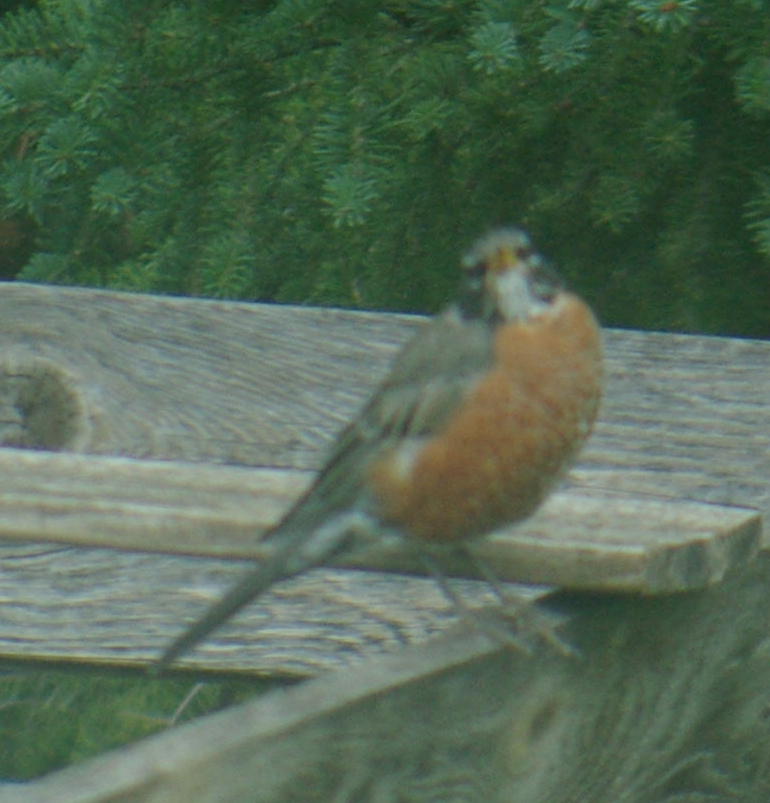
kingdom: Animalia
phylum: Chordata
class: Aves
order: Passeriformes
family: Turdidae
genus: Turdus
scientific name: Turdus migratorius
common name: American robin
